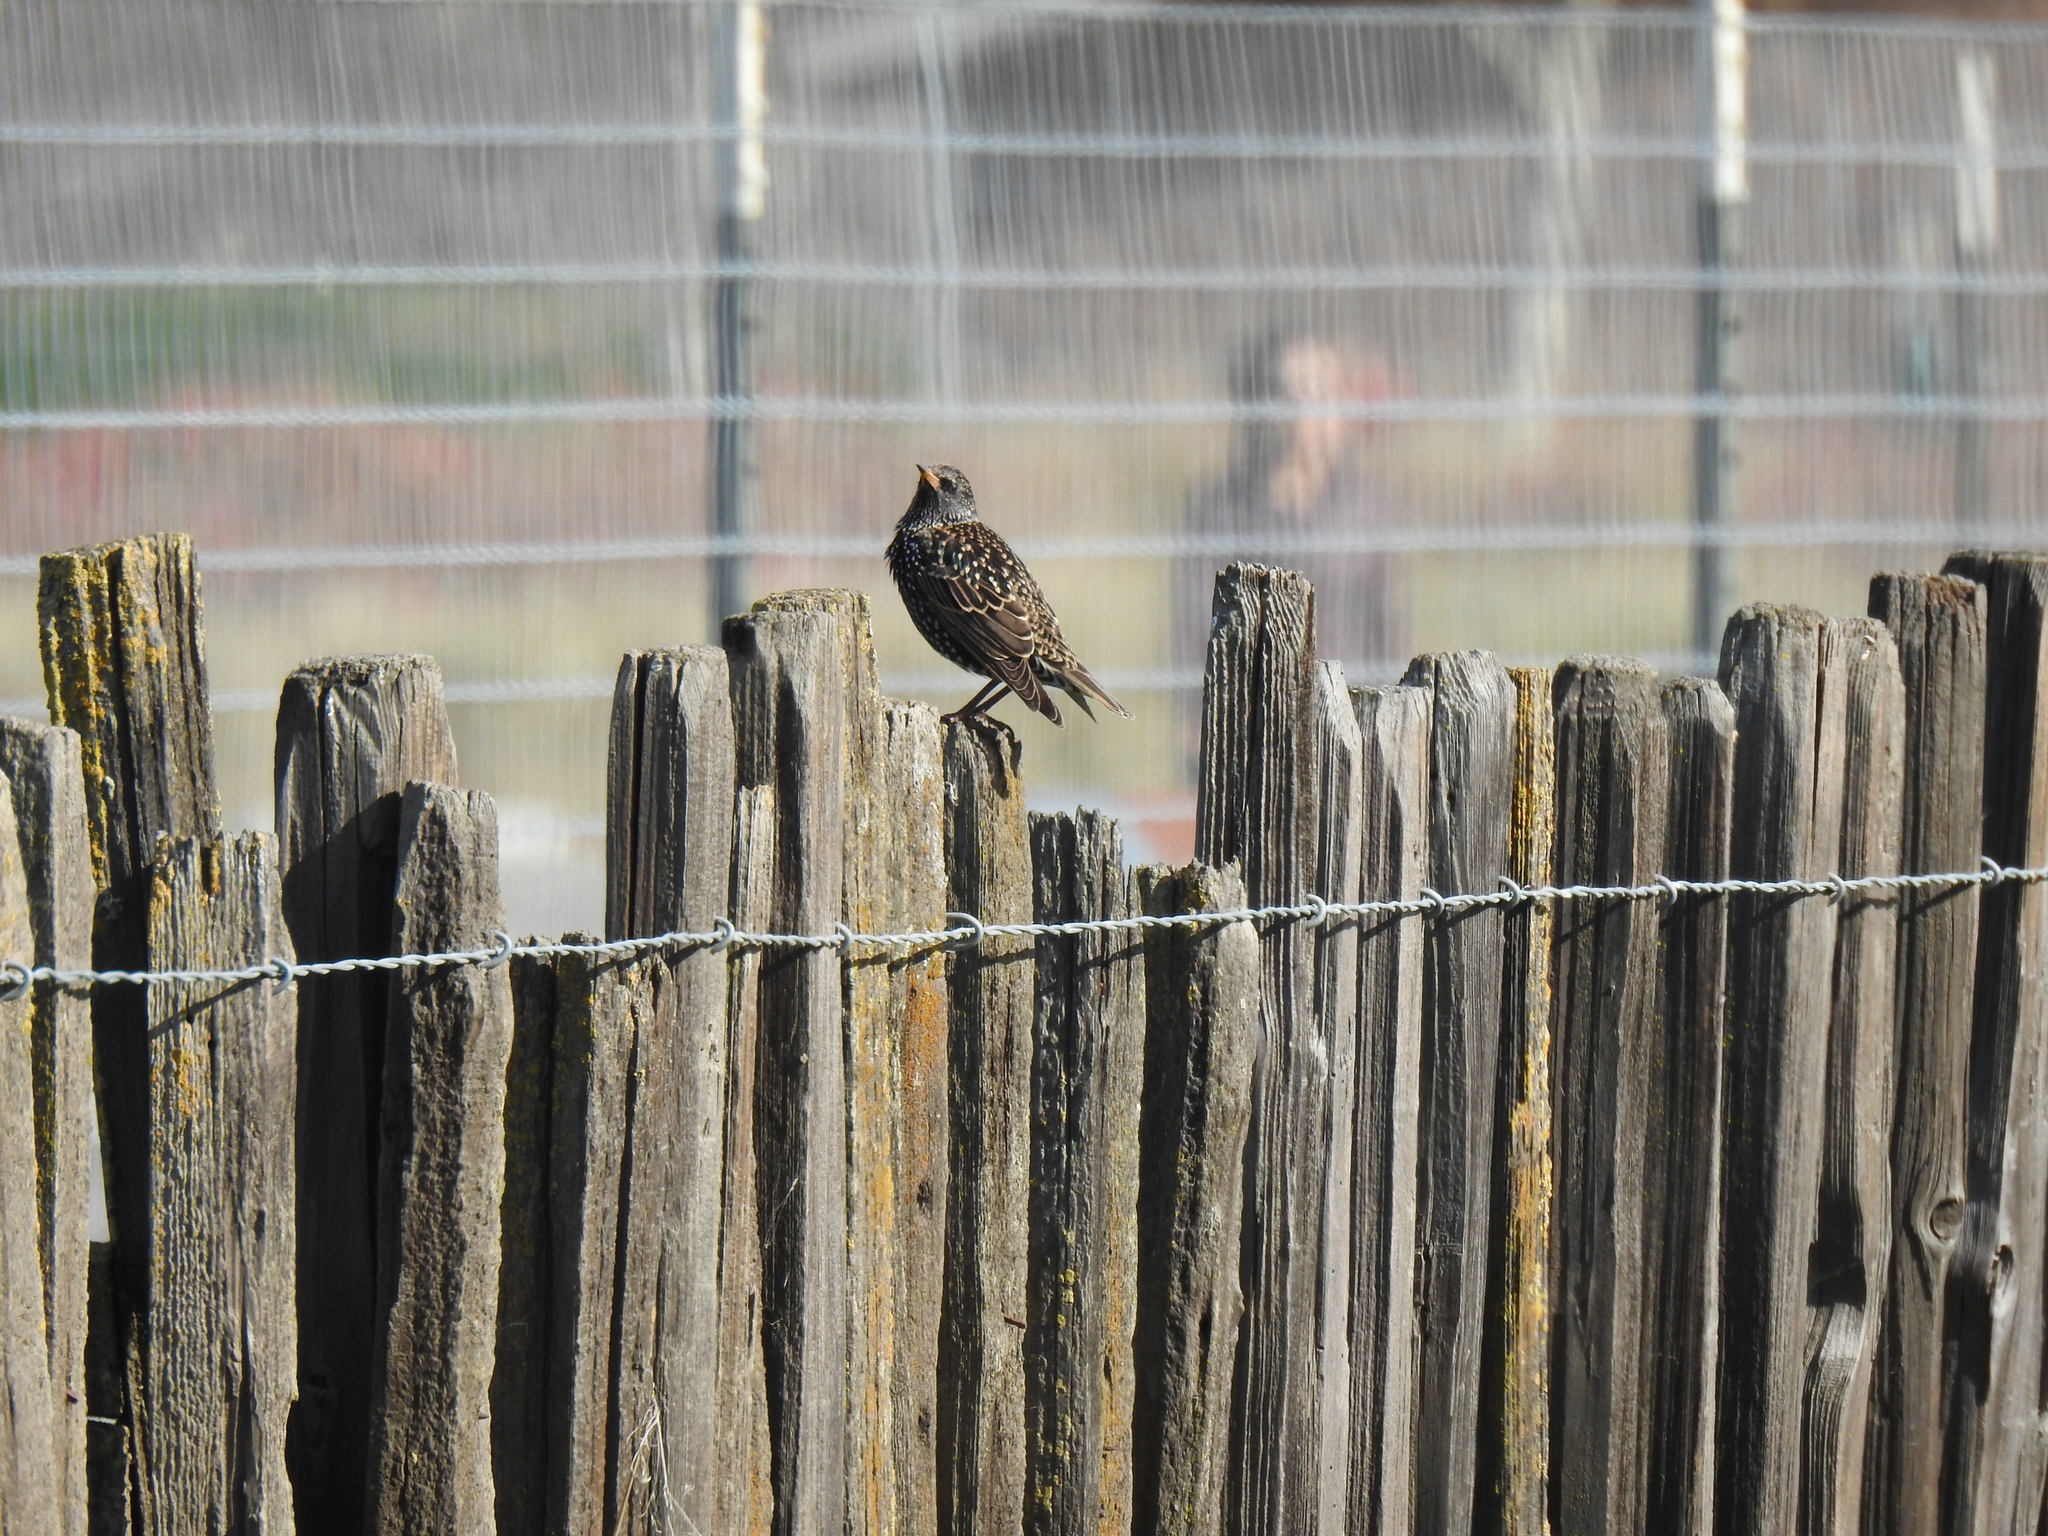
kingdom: Animalia
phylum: Chordata
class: Aves
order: Passeriformes
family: Sturnidae
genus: Sturnus
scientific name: Sturnus vulgaris
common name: Common starling
